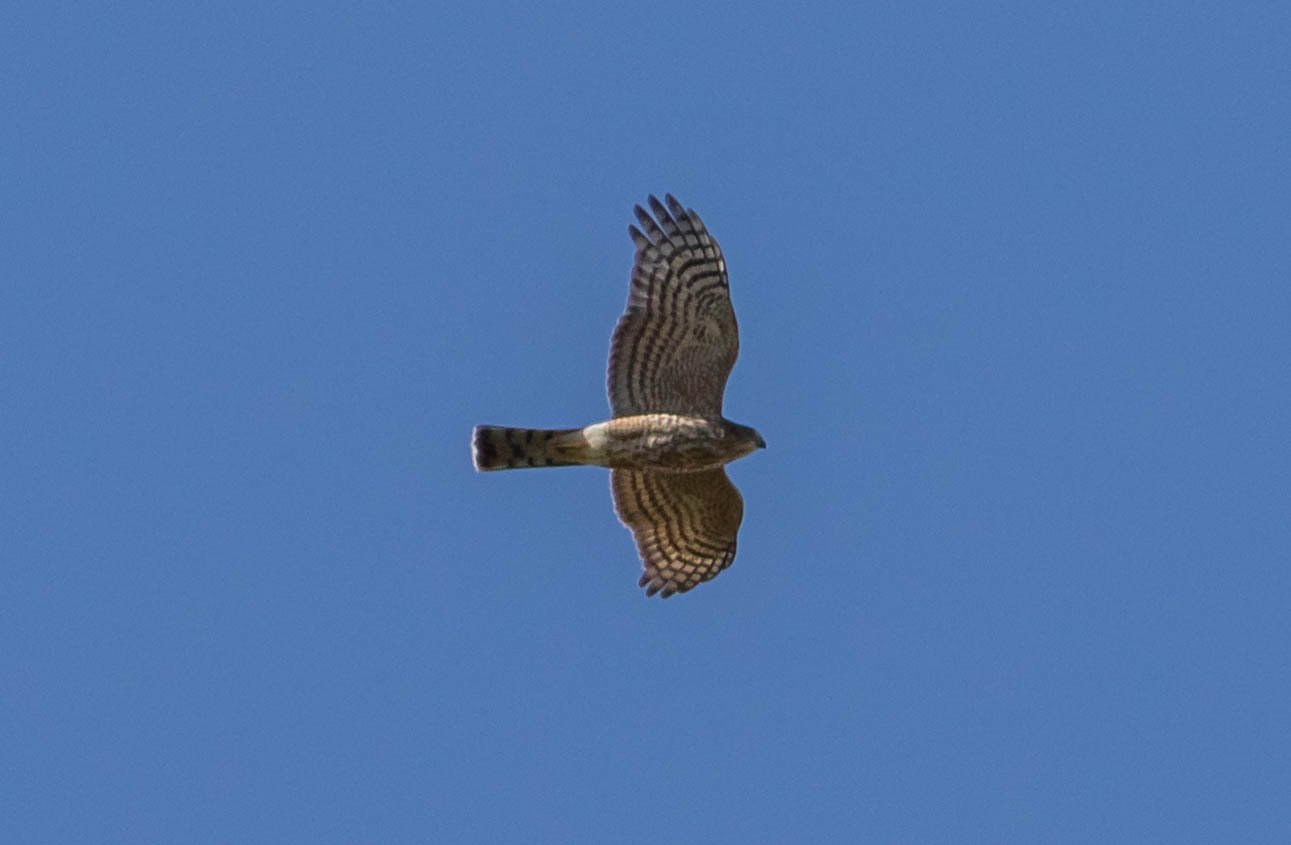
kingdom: Animalia
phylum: Chordata
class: Aves
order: Accipitriformes
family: Accipitridae
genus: Accipiter
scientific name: Accipiter striatus
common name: Sharp-shinned hawk
